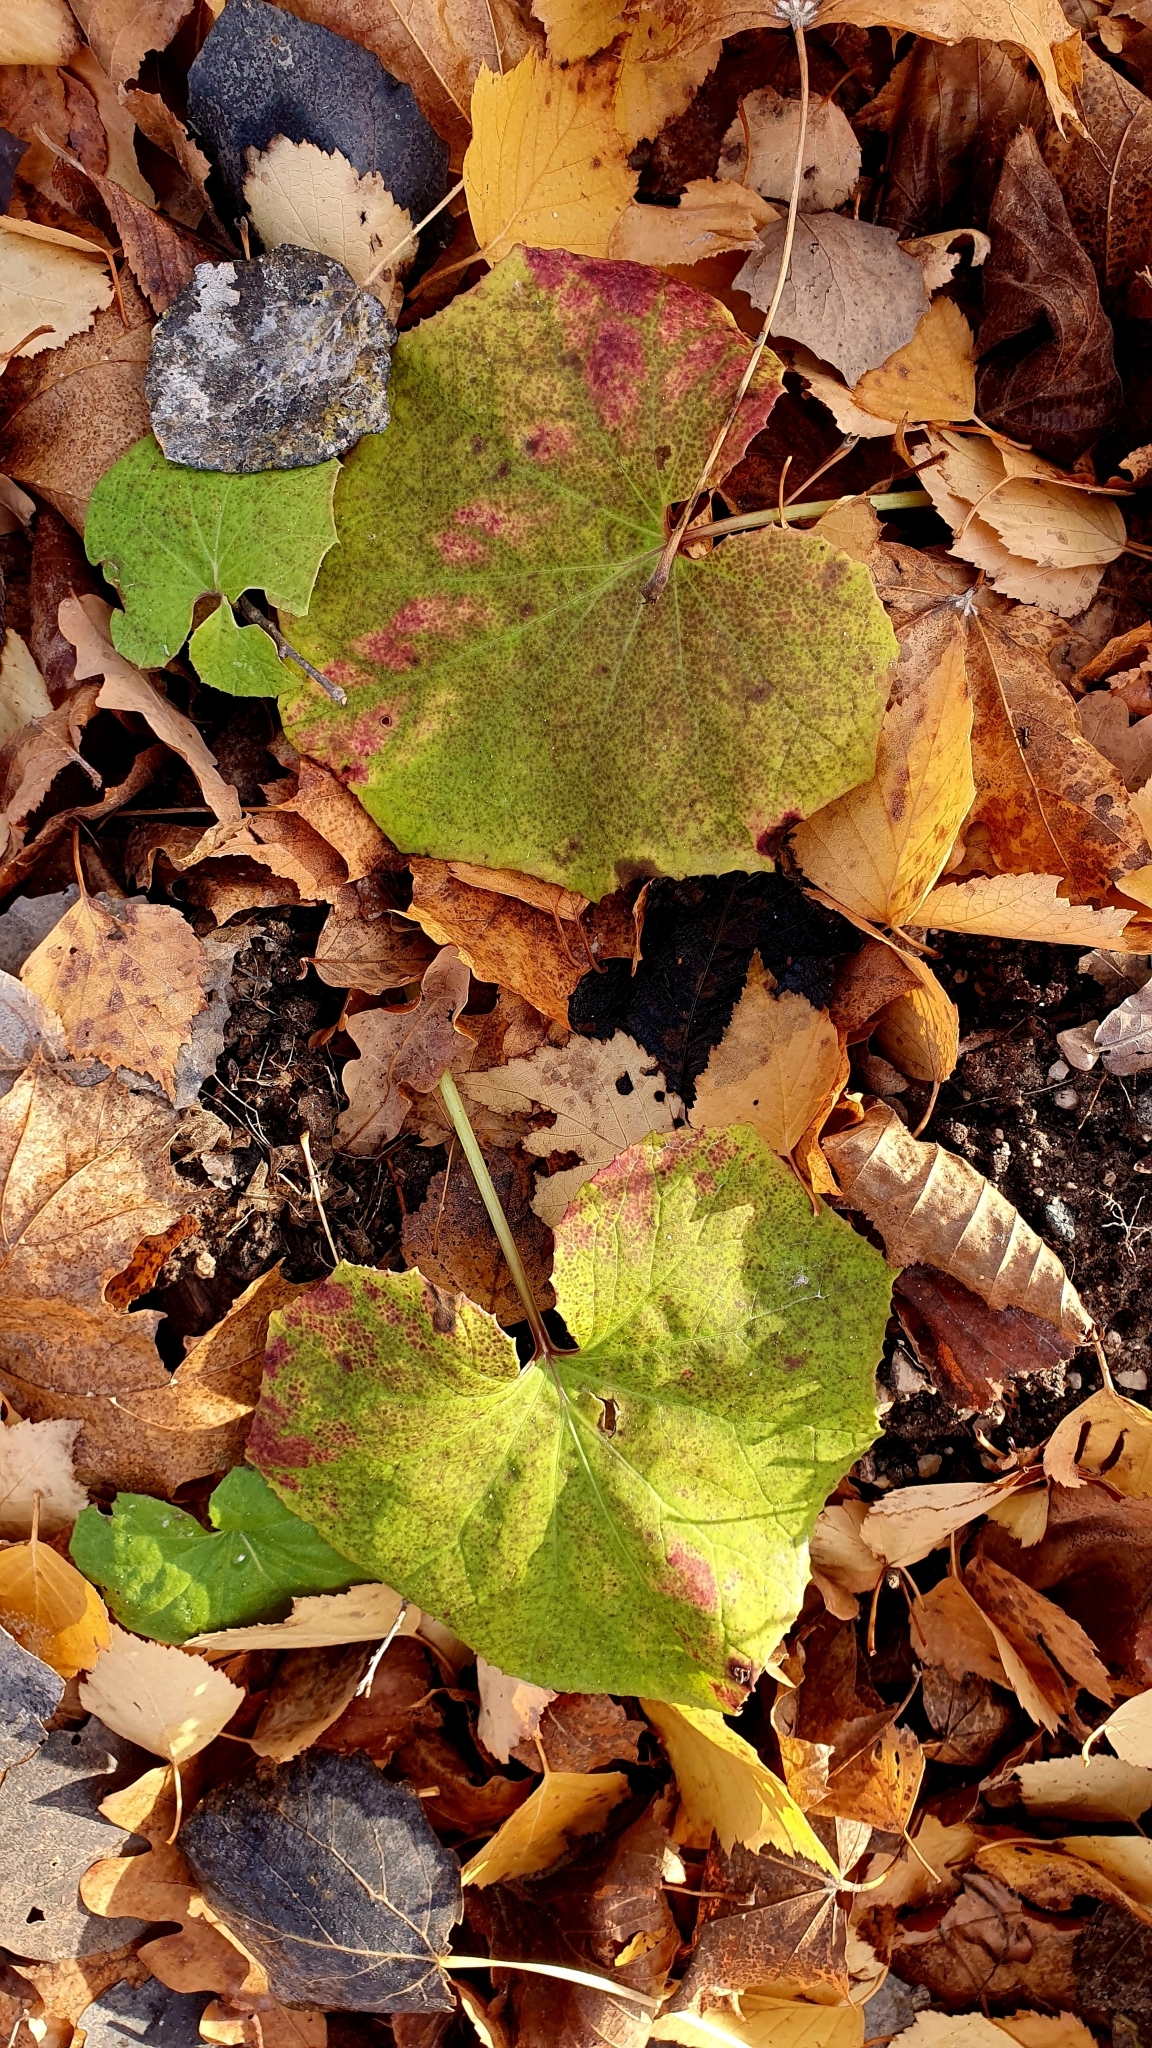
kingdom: Plantae
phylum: Tracheophyta
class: Magnoliopsida
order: Asterales
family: Asteraceae
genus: Tussilago
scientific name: Tussilago farfara
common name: Coltsfoot
